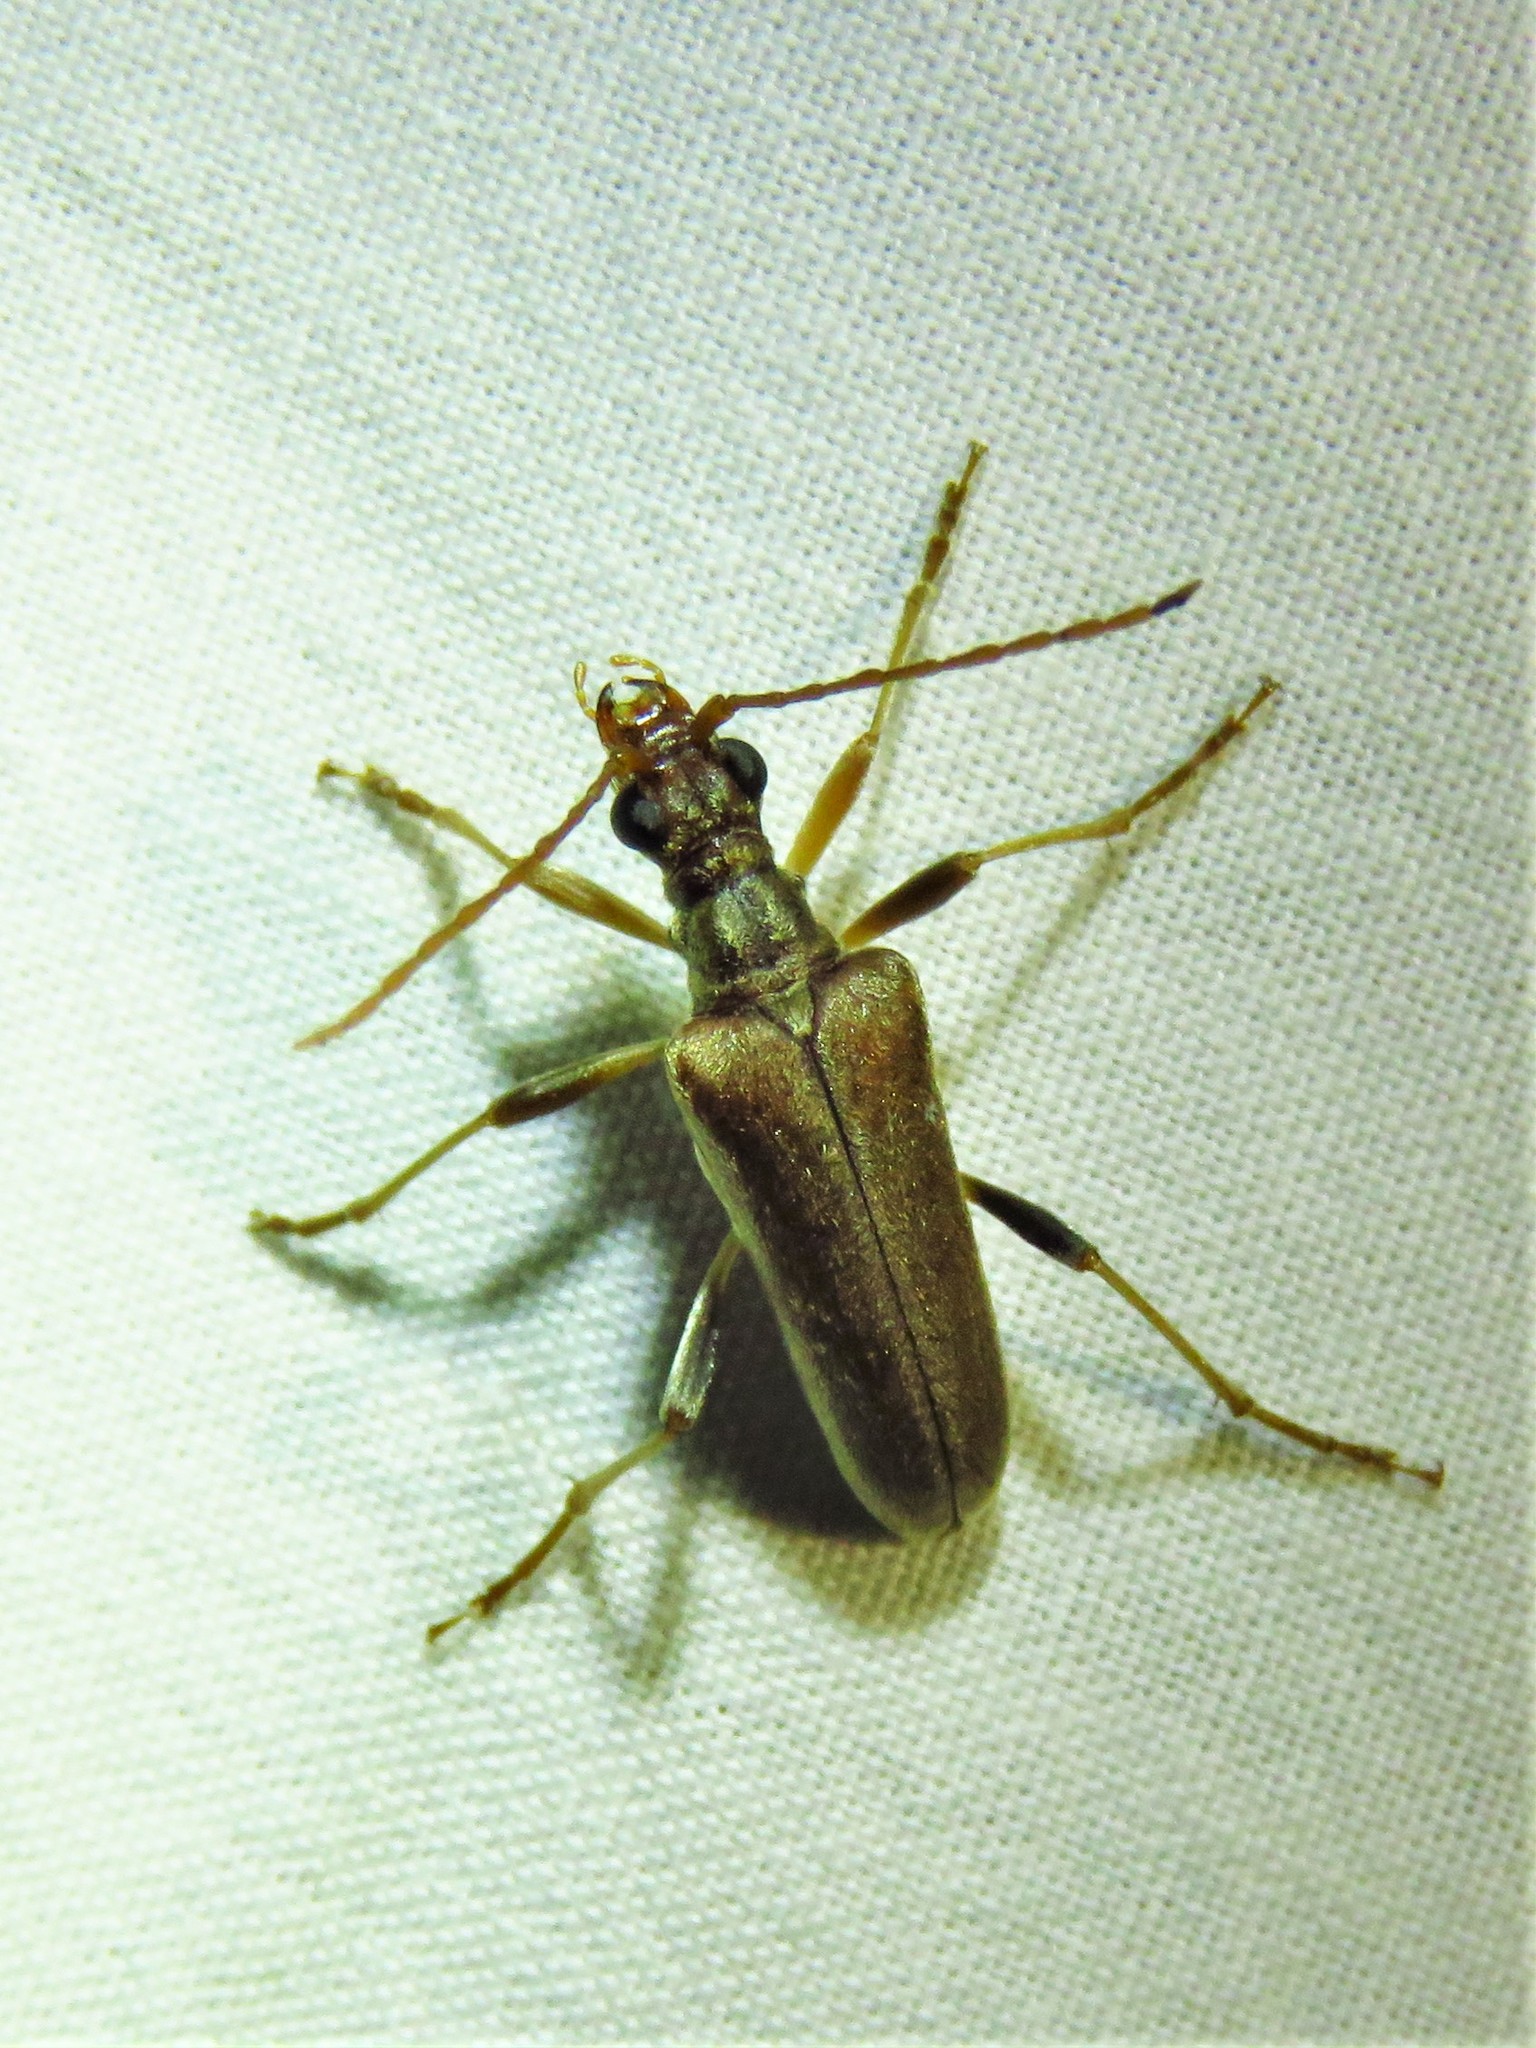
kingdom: Animalia
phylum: Arthropoda
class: Insecta
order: Coleoptera
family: Cerambycidae
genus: Stenocorus
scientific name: Stenocorus cinnamopterus
